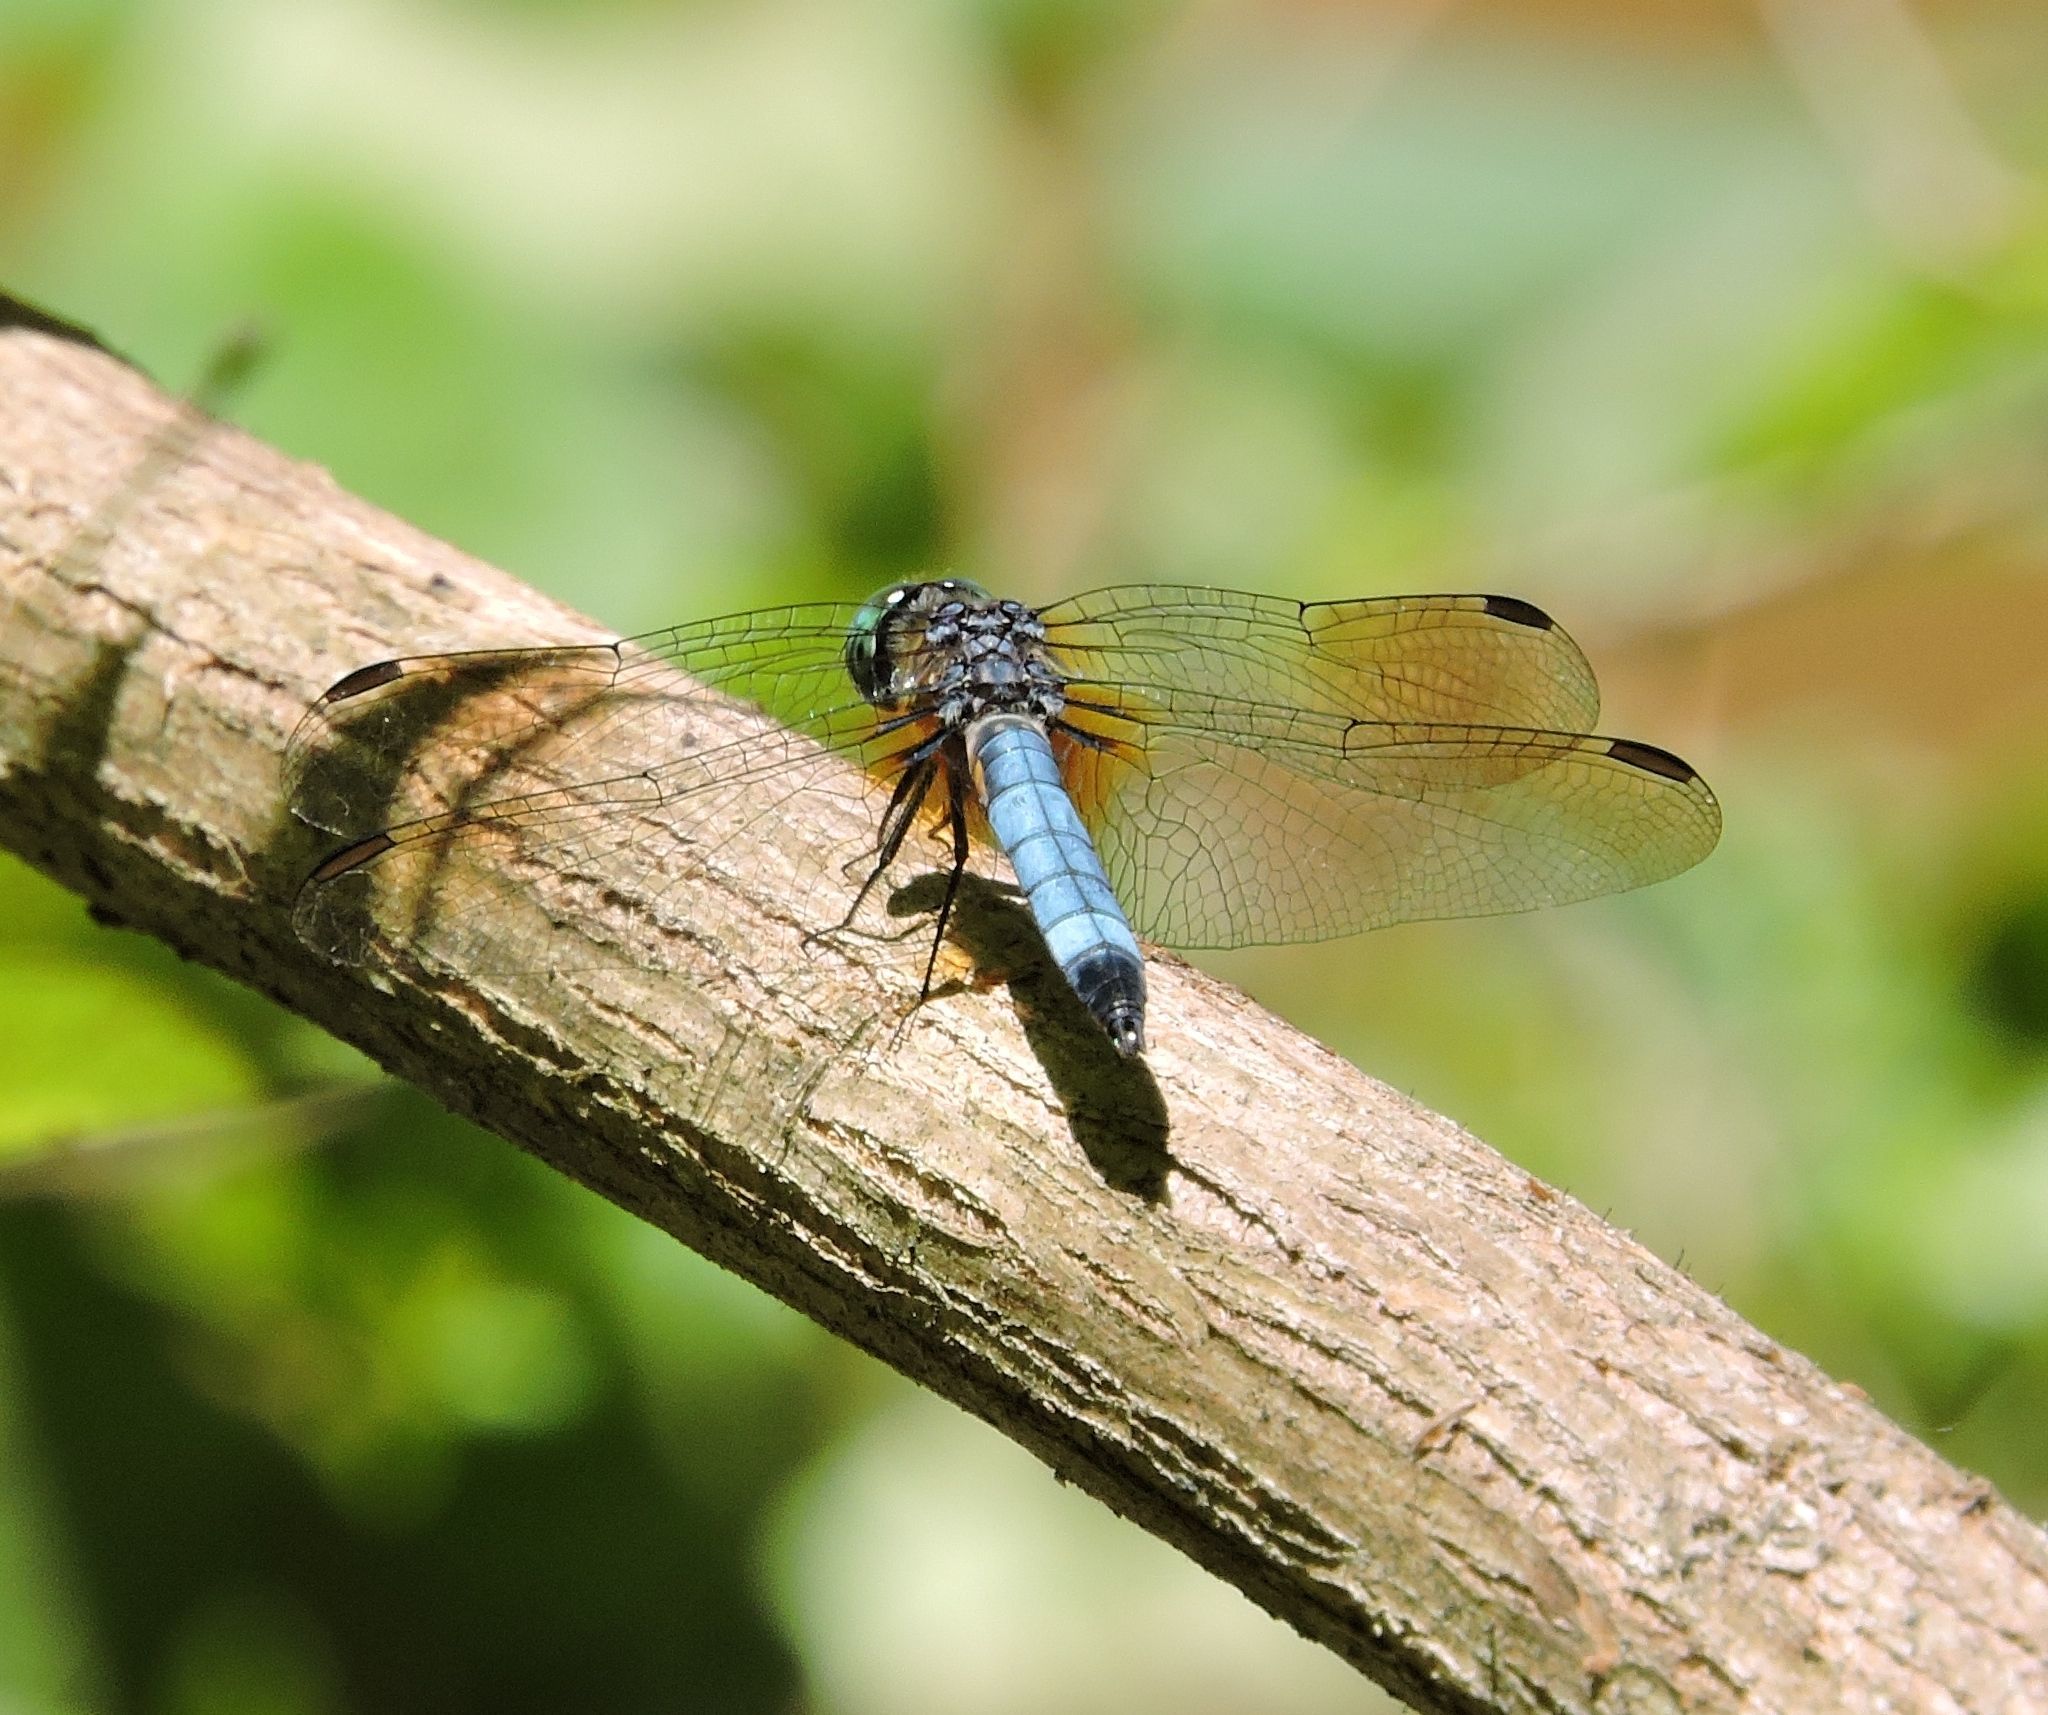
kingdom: Animalia
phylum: Arthropoda
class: Insecta
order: Odonata
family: Libellulidae
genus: Pachydiplax
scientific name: Pachydiplax longipennis
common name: Blue dasher
